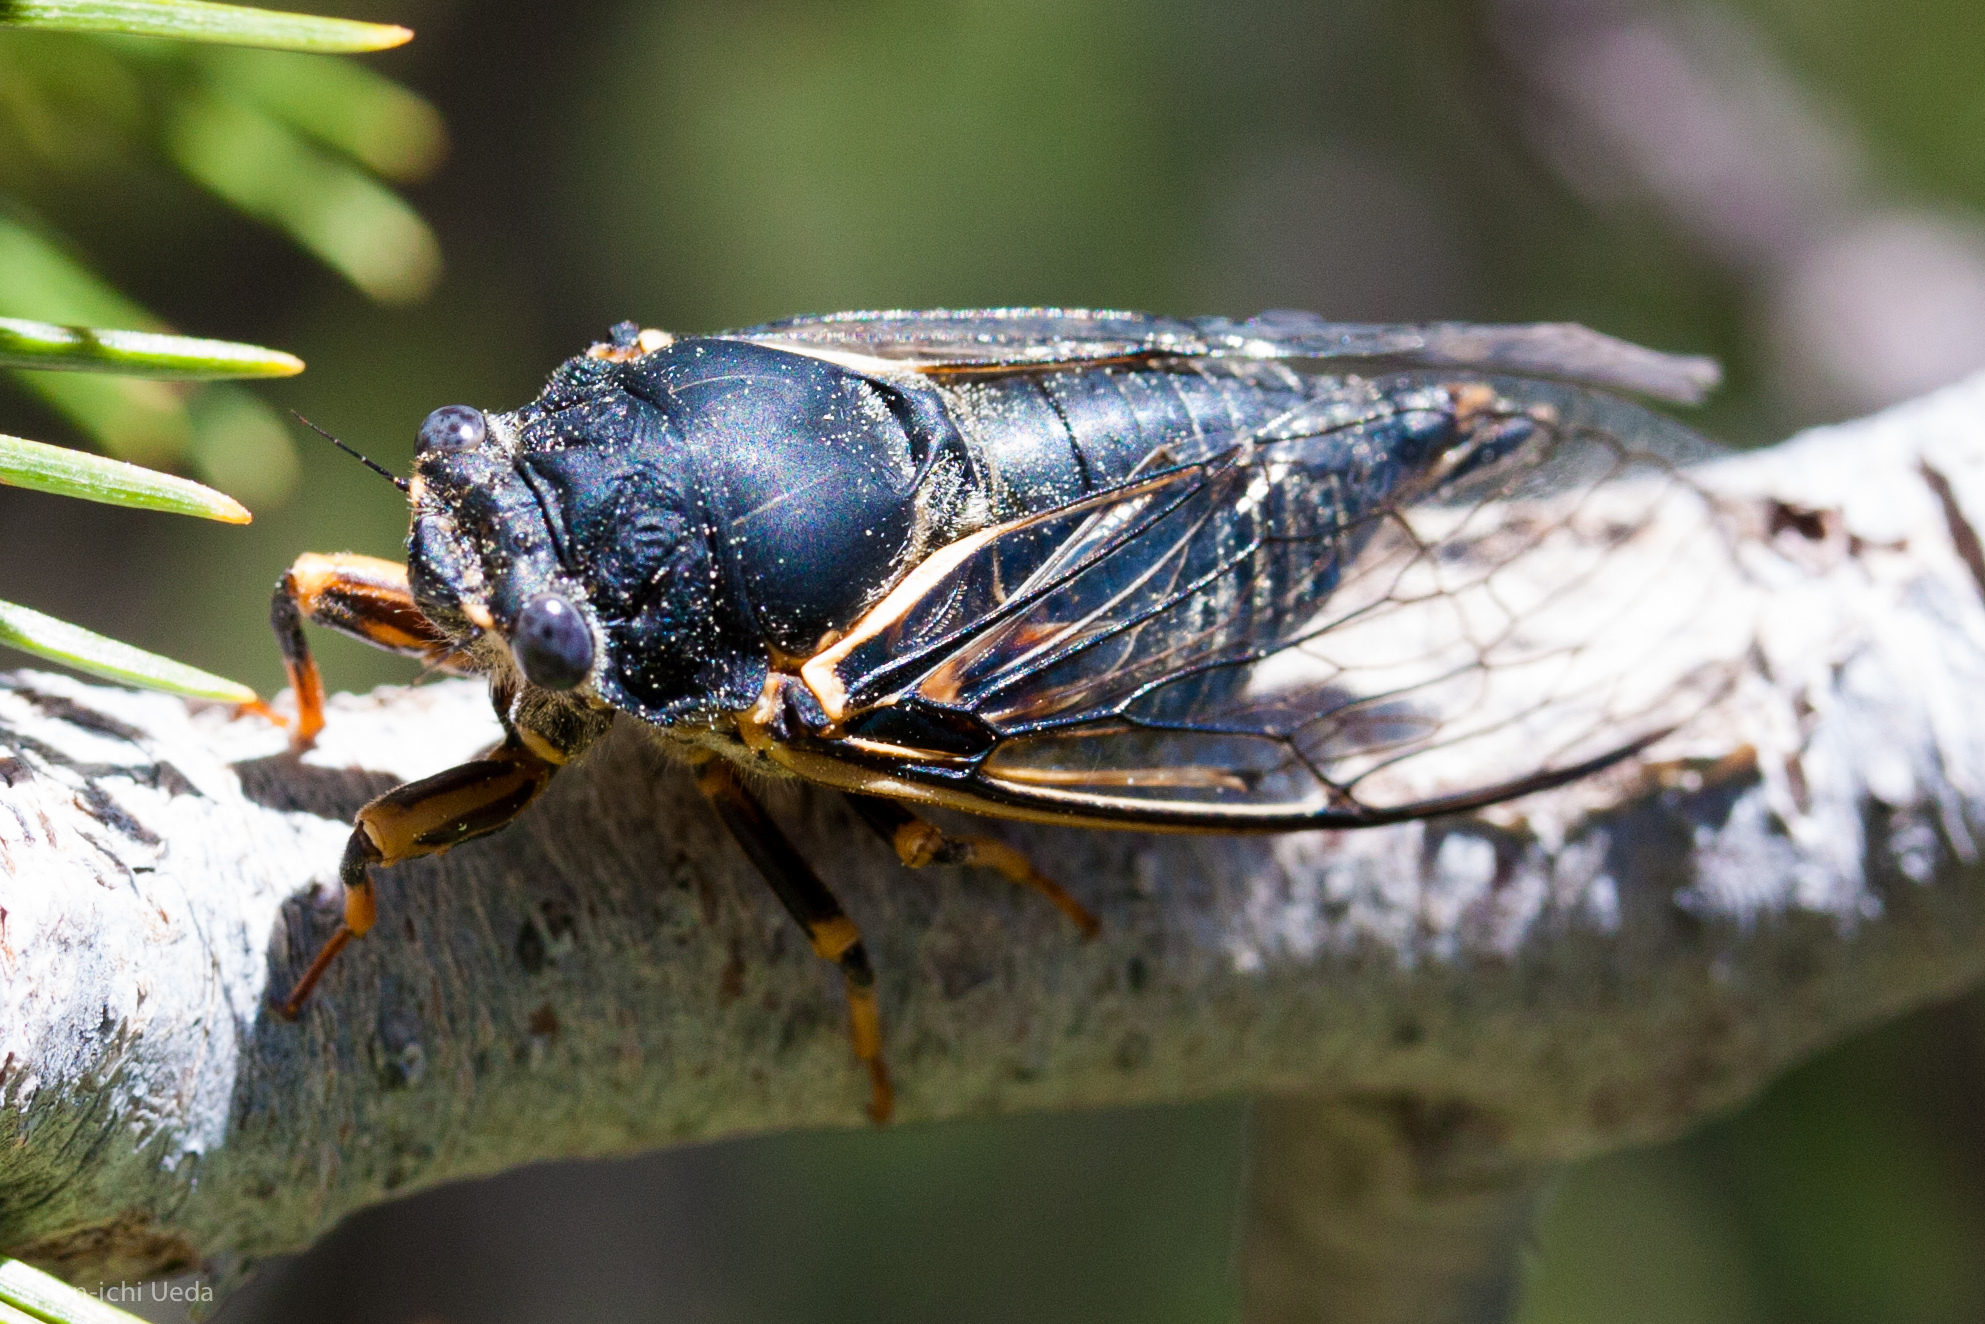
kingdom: Animalia
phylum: Arthropoda
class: Insecta
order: Hemiptera
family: Cicadidae
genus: Okanagana
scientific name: Okanagana nigrodorsata
